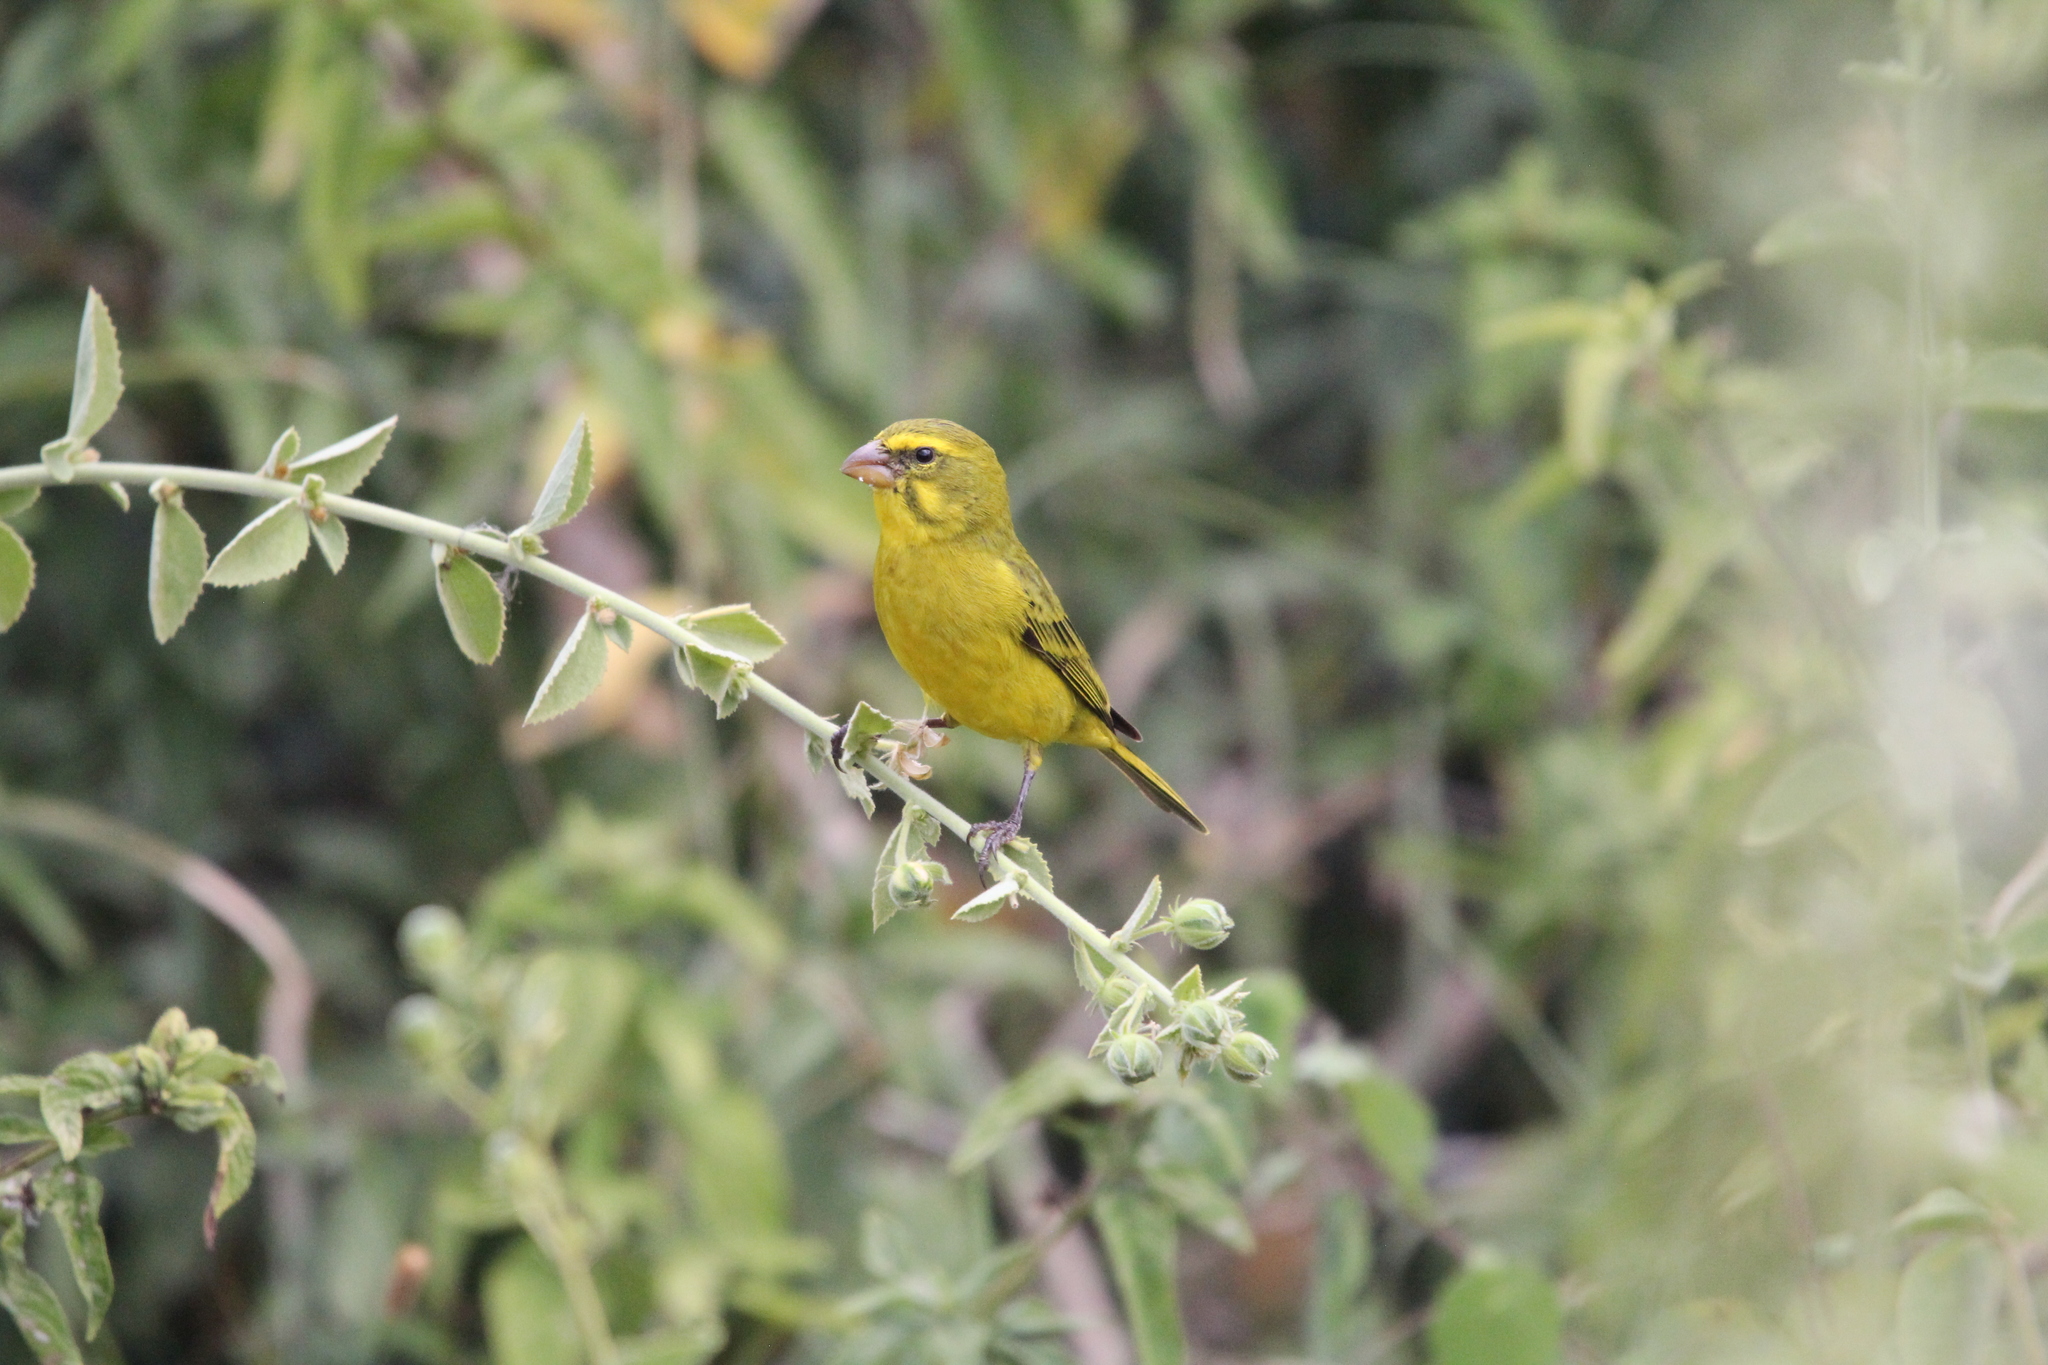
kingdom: Animalia
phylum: Chordata
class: Aves
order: Passeriformes
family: Fringillidae
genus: Crithagra
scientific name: Crithagra sulphurata
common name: Brimstone canary
